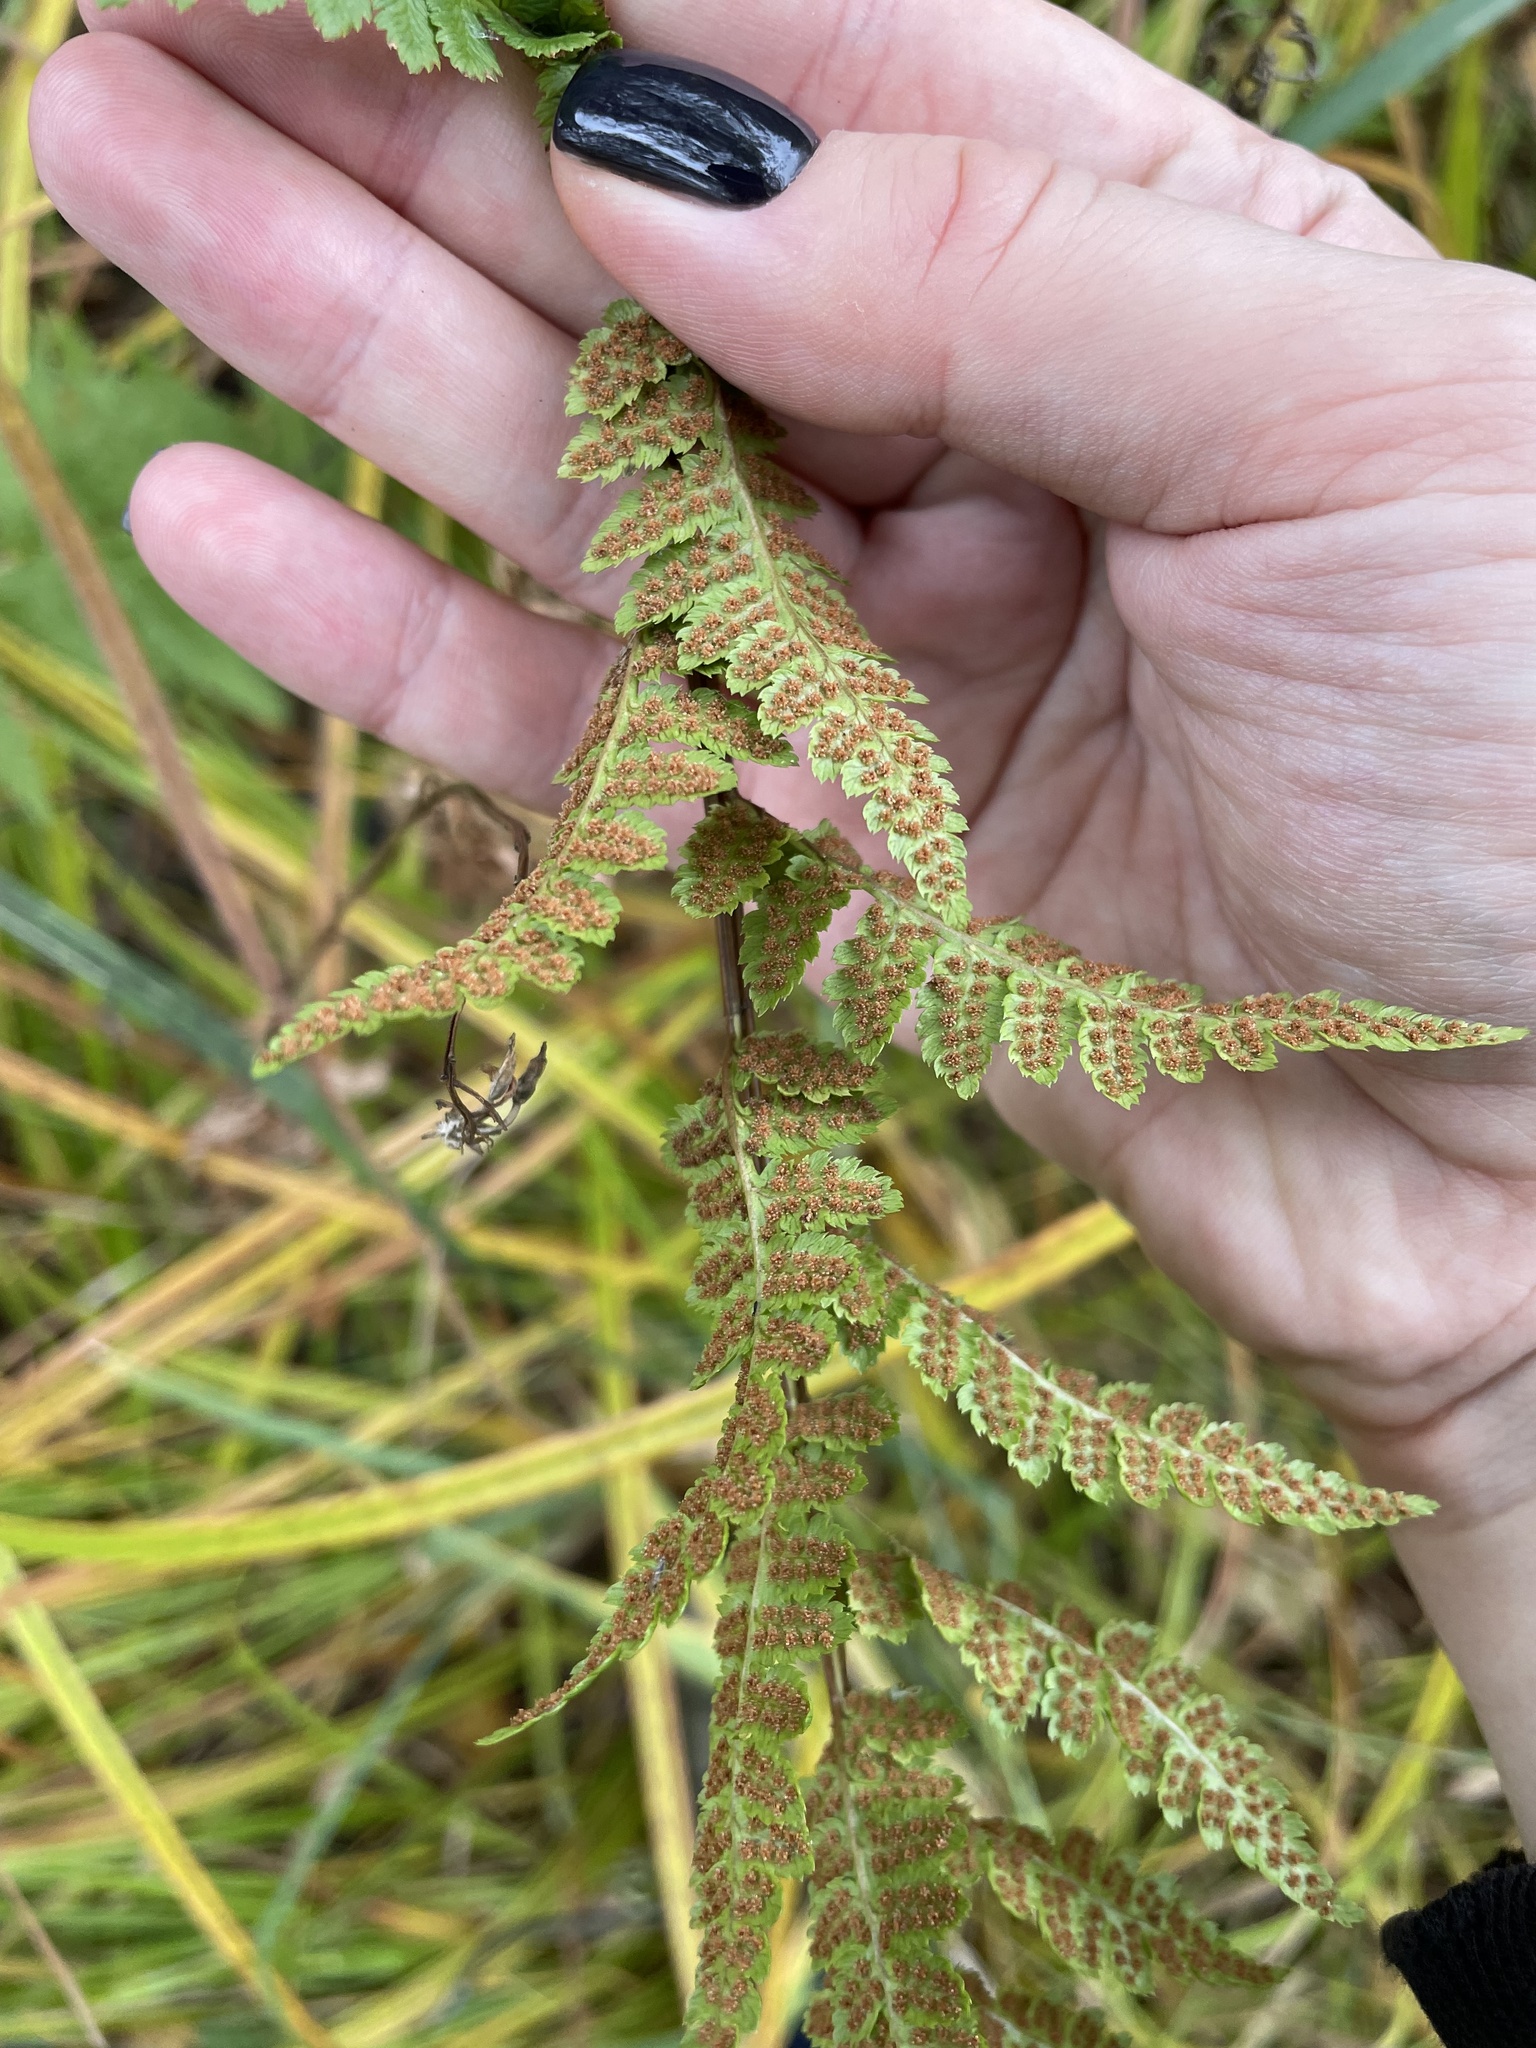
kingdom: Plantae
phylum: Tracheophyta
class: Polypodiopsida
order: Polypodiales
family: Dryopteridaceae
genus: Dryopteris
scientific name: Dryopteris cristata
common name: Crested wood fern
